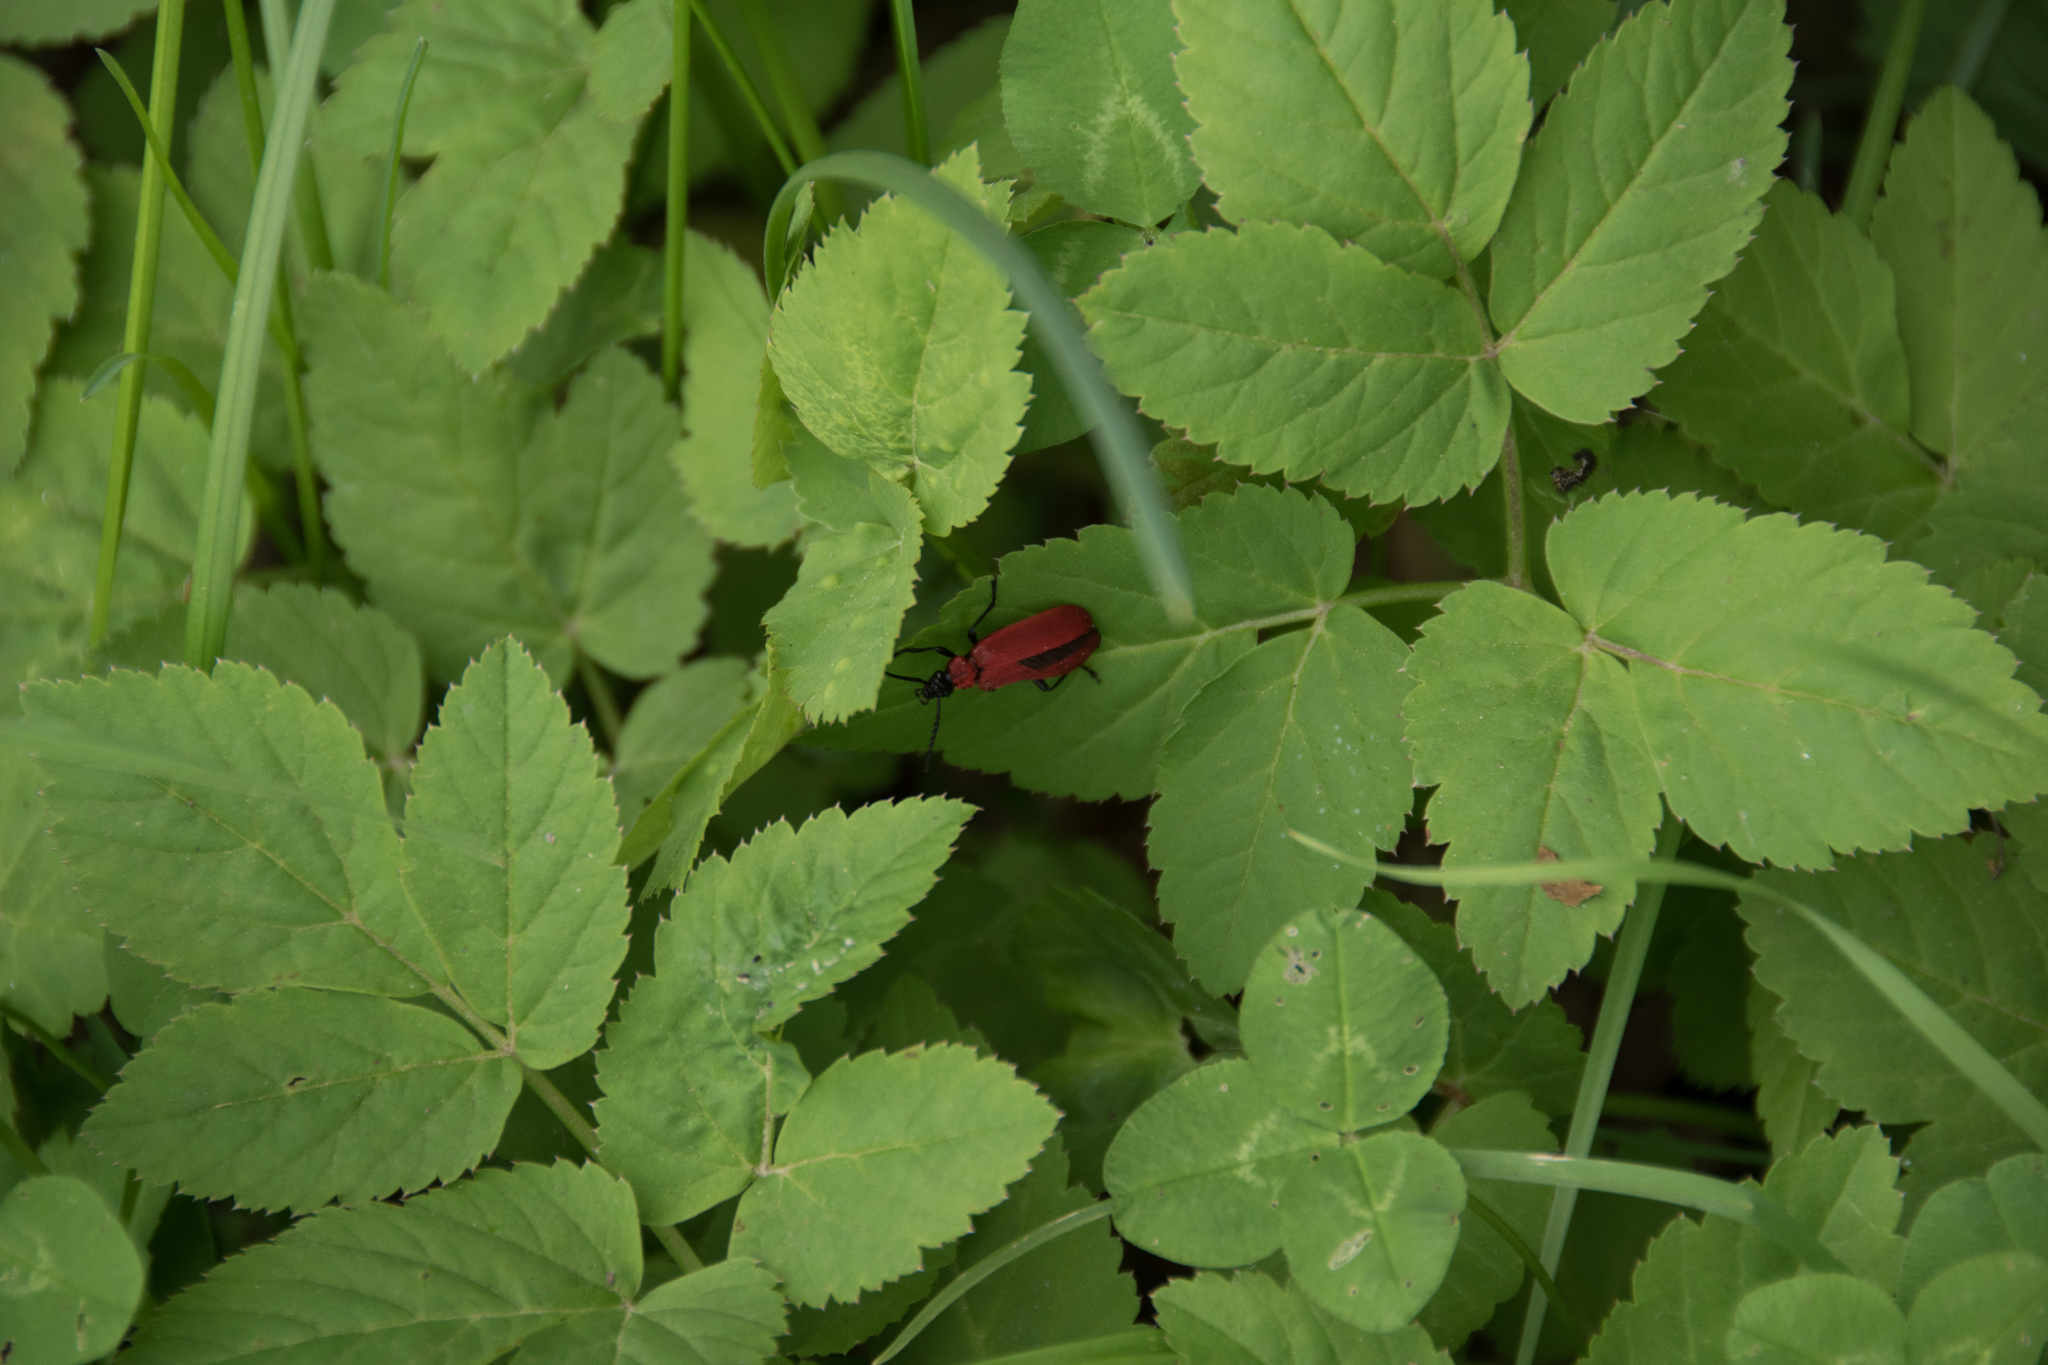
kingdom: Animalia
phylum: Arthropoda
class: Insecta
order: Coleoptera
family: Pyrochroidae
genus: Pyrochroa
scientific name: Pyrochroa coccinea
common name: Black-headed cardinal beetle
